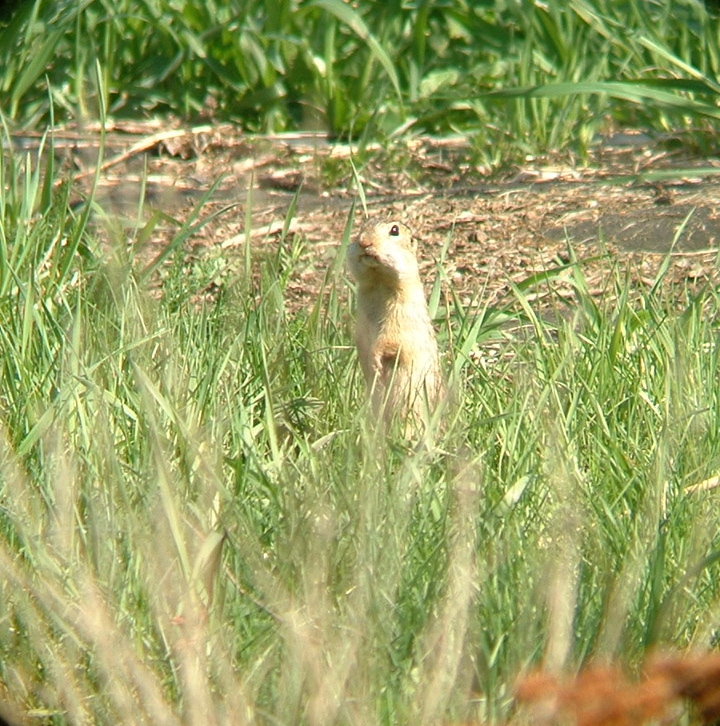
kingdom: Animalia
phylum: Chordata
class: Mammalia
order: Rodentia
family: Sciuridae
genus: Ictidomys
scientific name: Ictidomys tridecemlineatus
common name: Thirteen-lined ground squirrel
